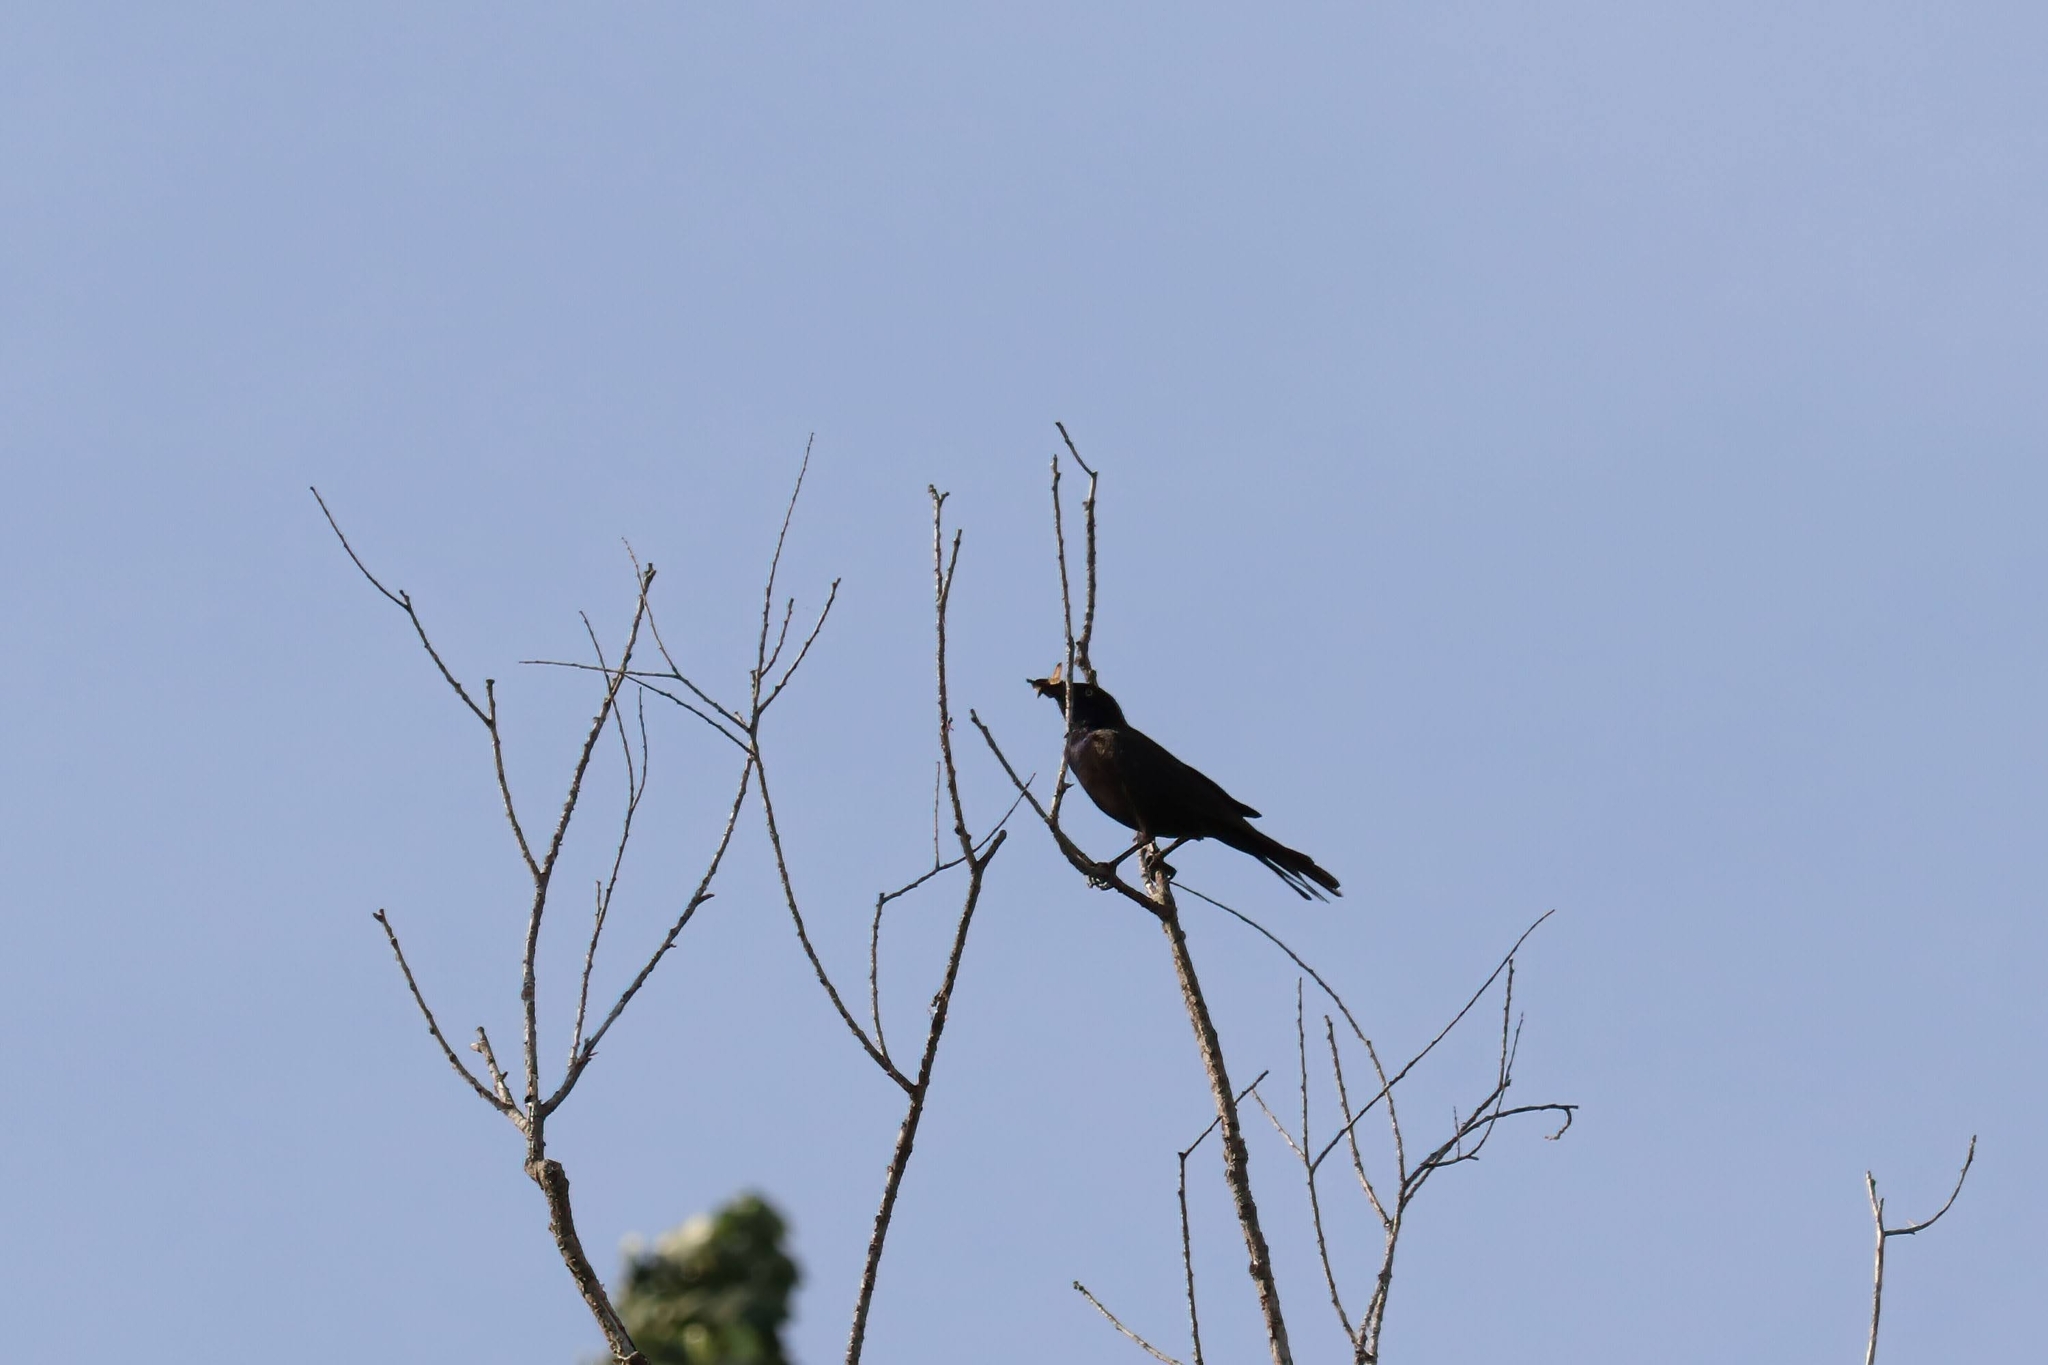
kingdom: Animalia
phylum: Chordata
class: Aves
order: Passeriformes
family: Icteridae
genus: Quiscalus
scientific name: Quiscalus quiscula
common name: Common grackle
